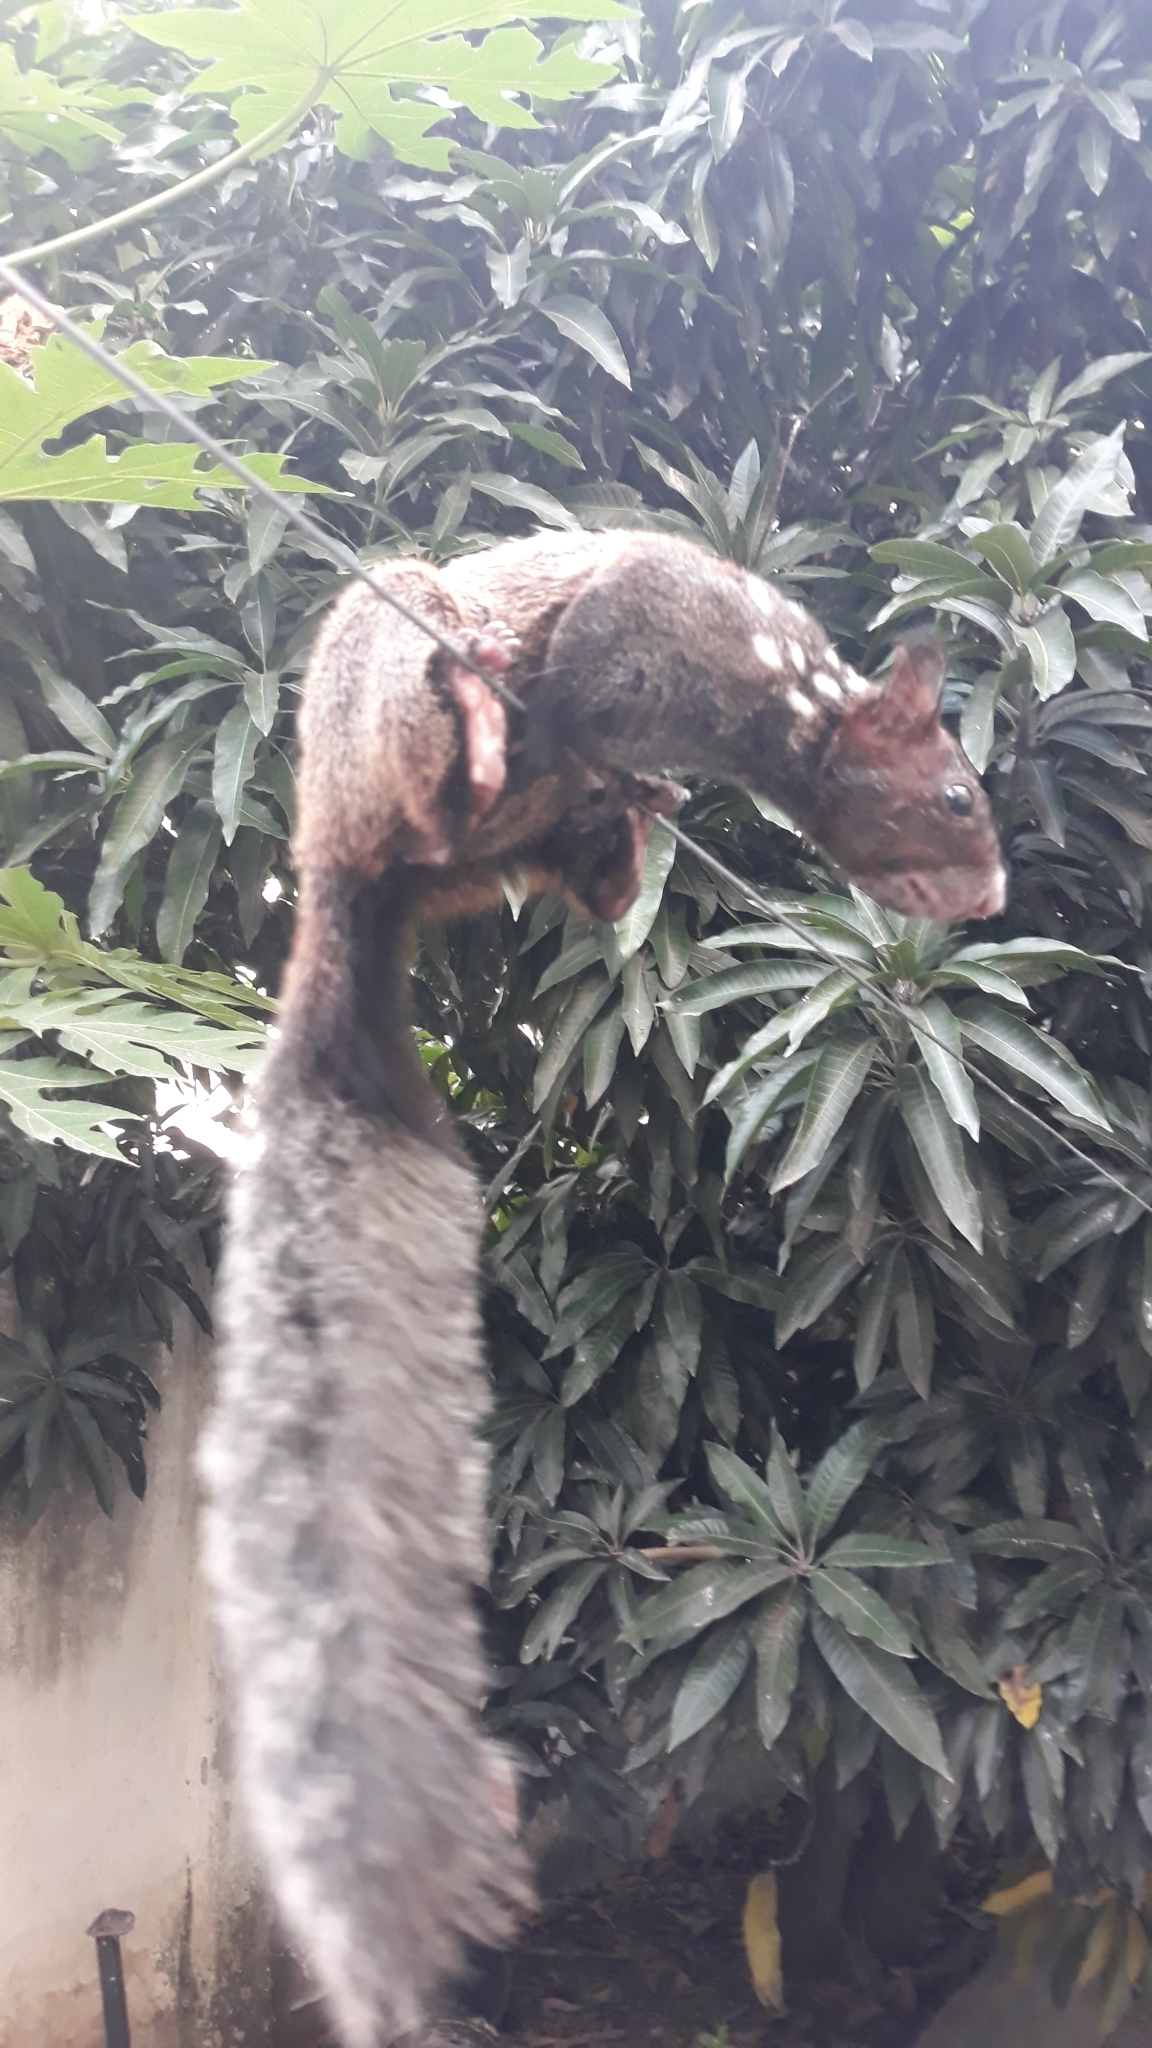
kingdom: Animalia
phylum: Chordata
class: Mammalia
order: Rodentia
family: Sciuridae
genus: Sciurus
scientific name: Sciurus stramineus
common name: Guayaquil squirrel
